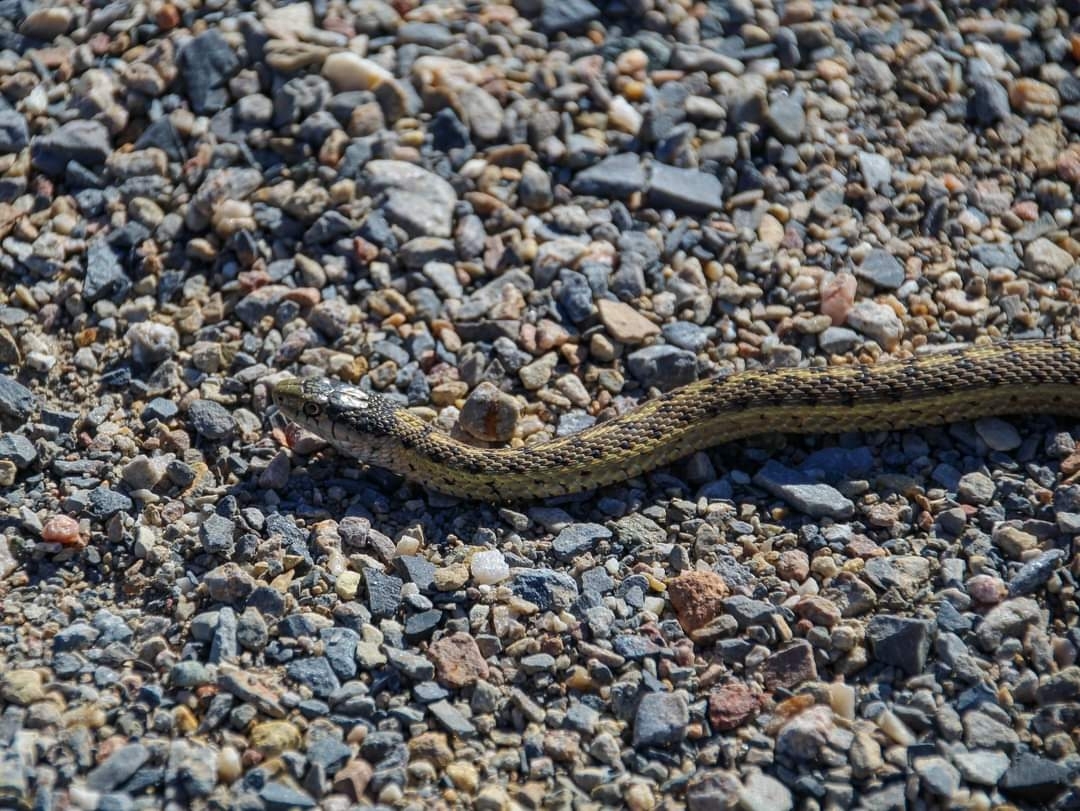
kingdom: Animalia
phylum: Chordata
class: Squamata
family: Colubridae
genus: Thamnophis
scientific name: Thamnophis elegans
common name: Western terrestrial garter snake
